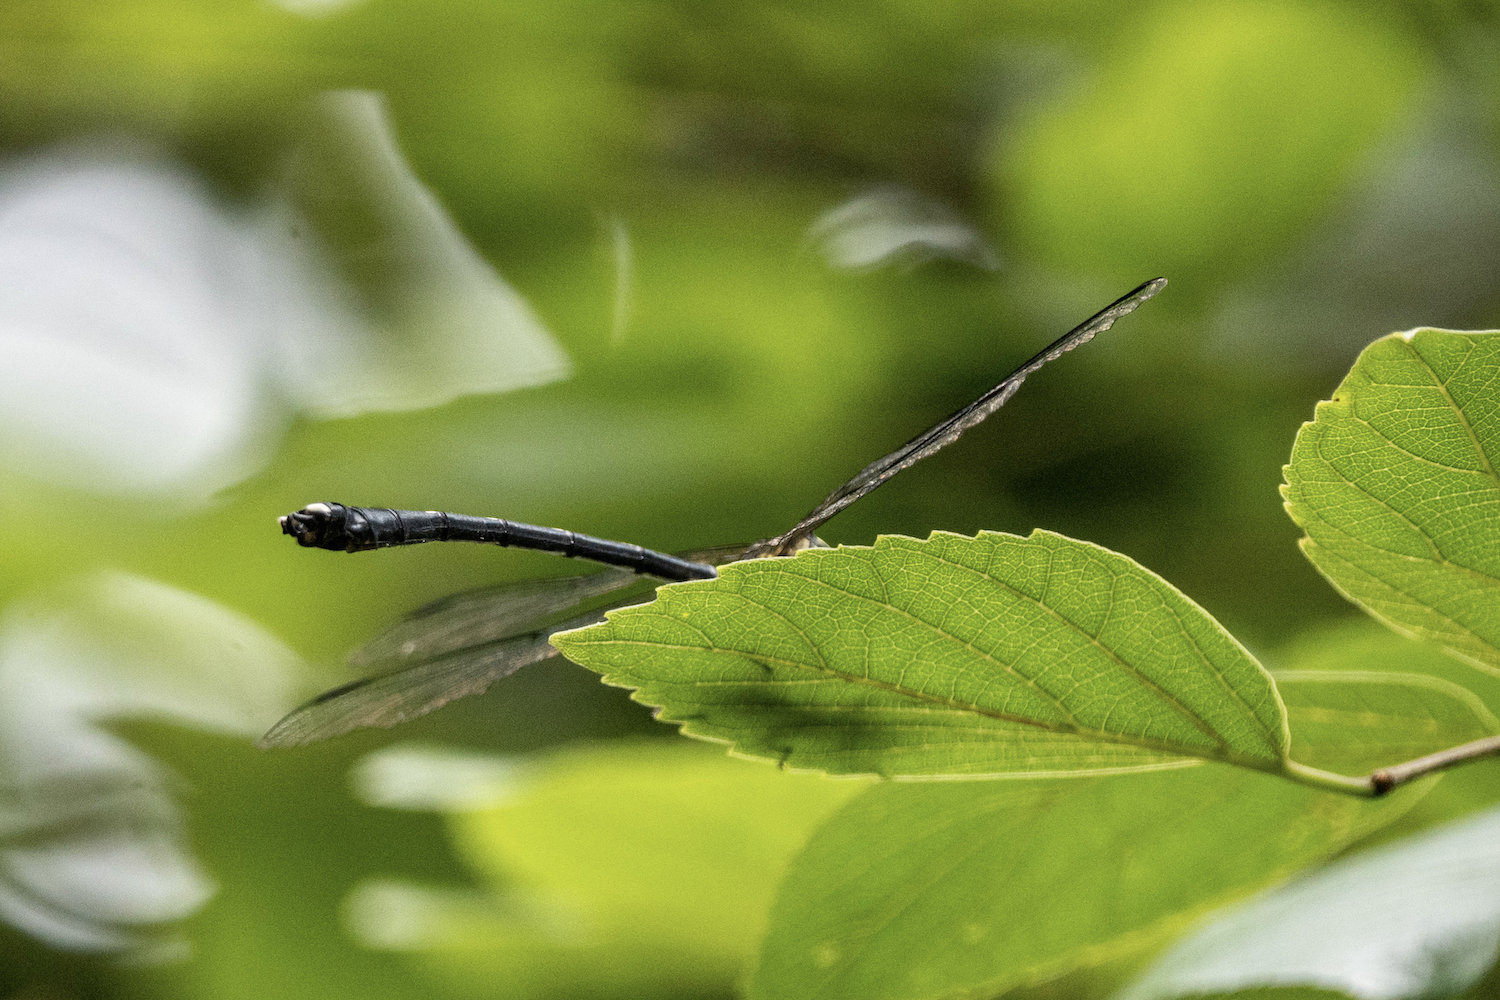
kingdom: Animalia
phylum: Arthropoda
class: Insecta
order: Odonata
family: Gomphidae
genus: Leptogomphus
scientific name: Leptogomphus hongkongensis
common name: Hong kong clubtail
